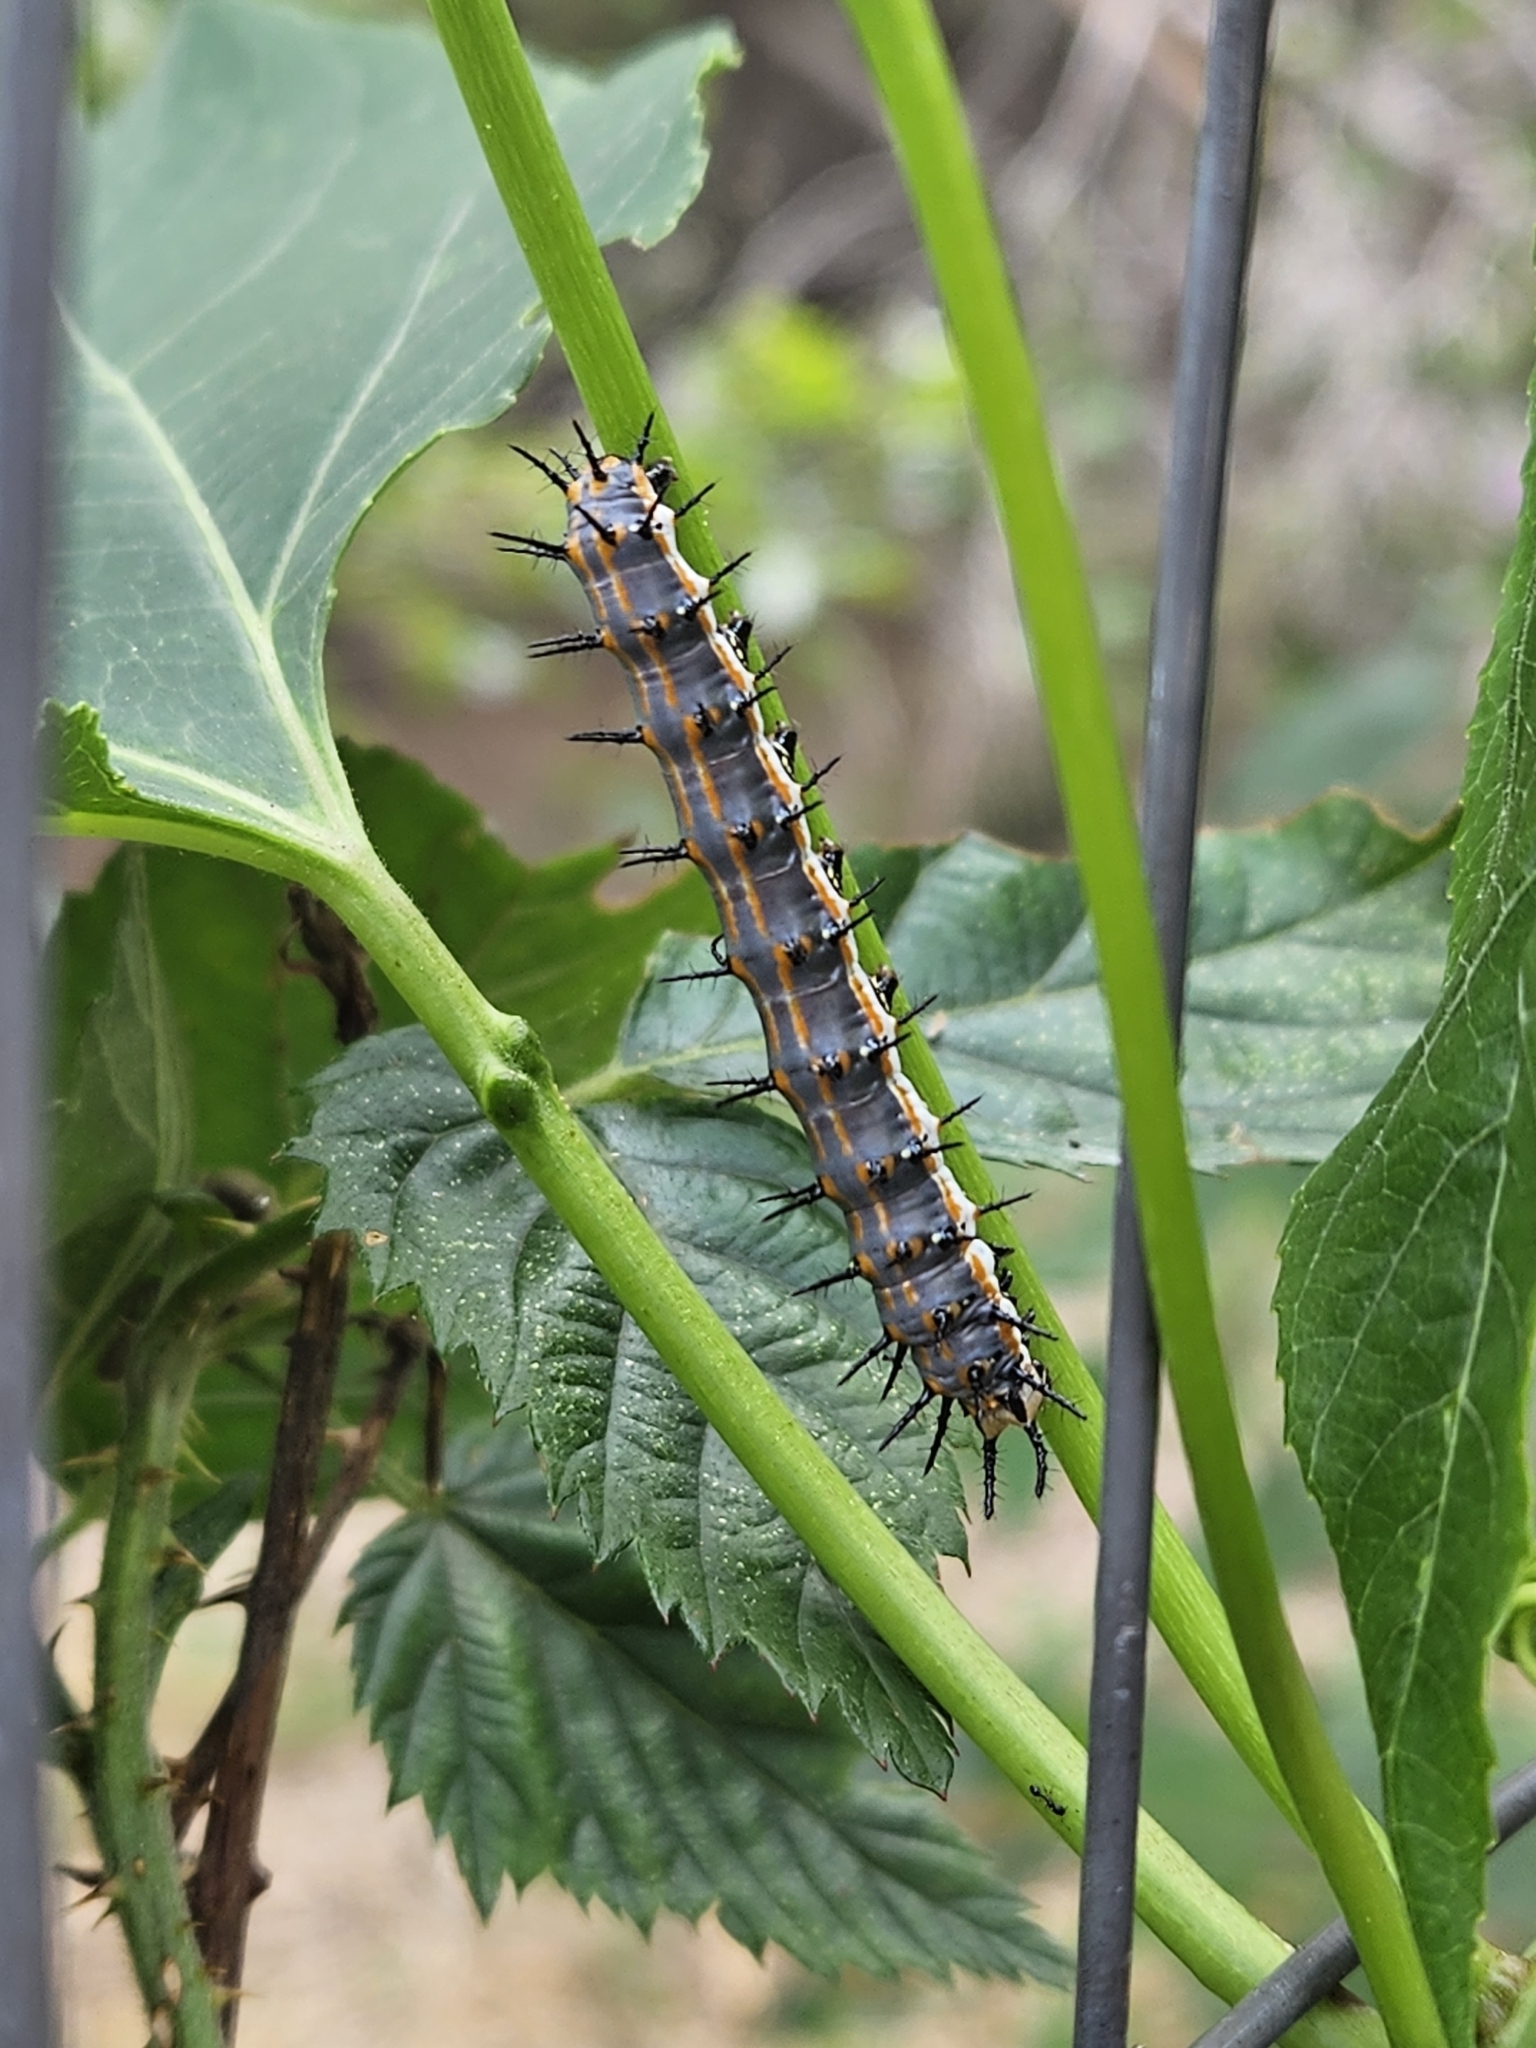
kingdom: Animalia
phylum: Arthropoda
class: Insecta
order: Lepidoptera
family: Nymphalidae
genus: Dione
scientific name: Dione vanillae
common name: Gulf fritillary
